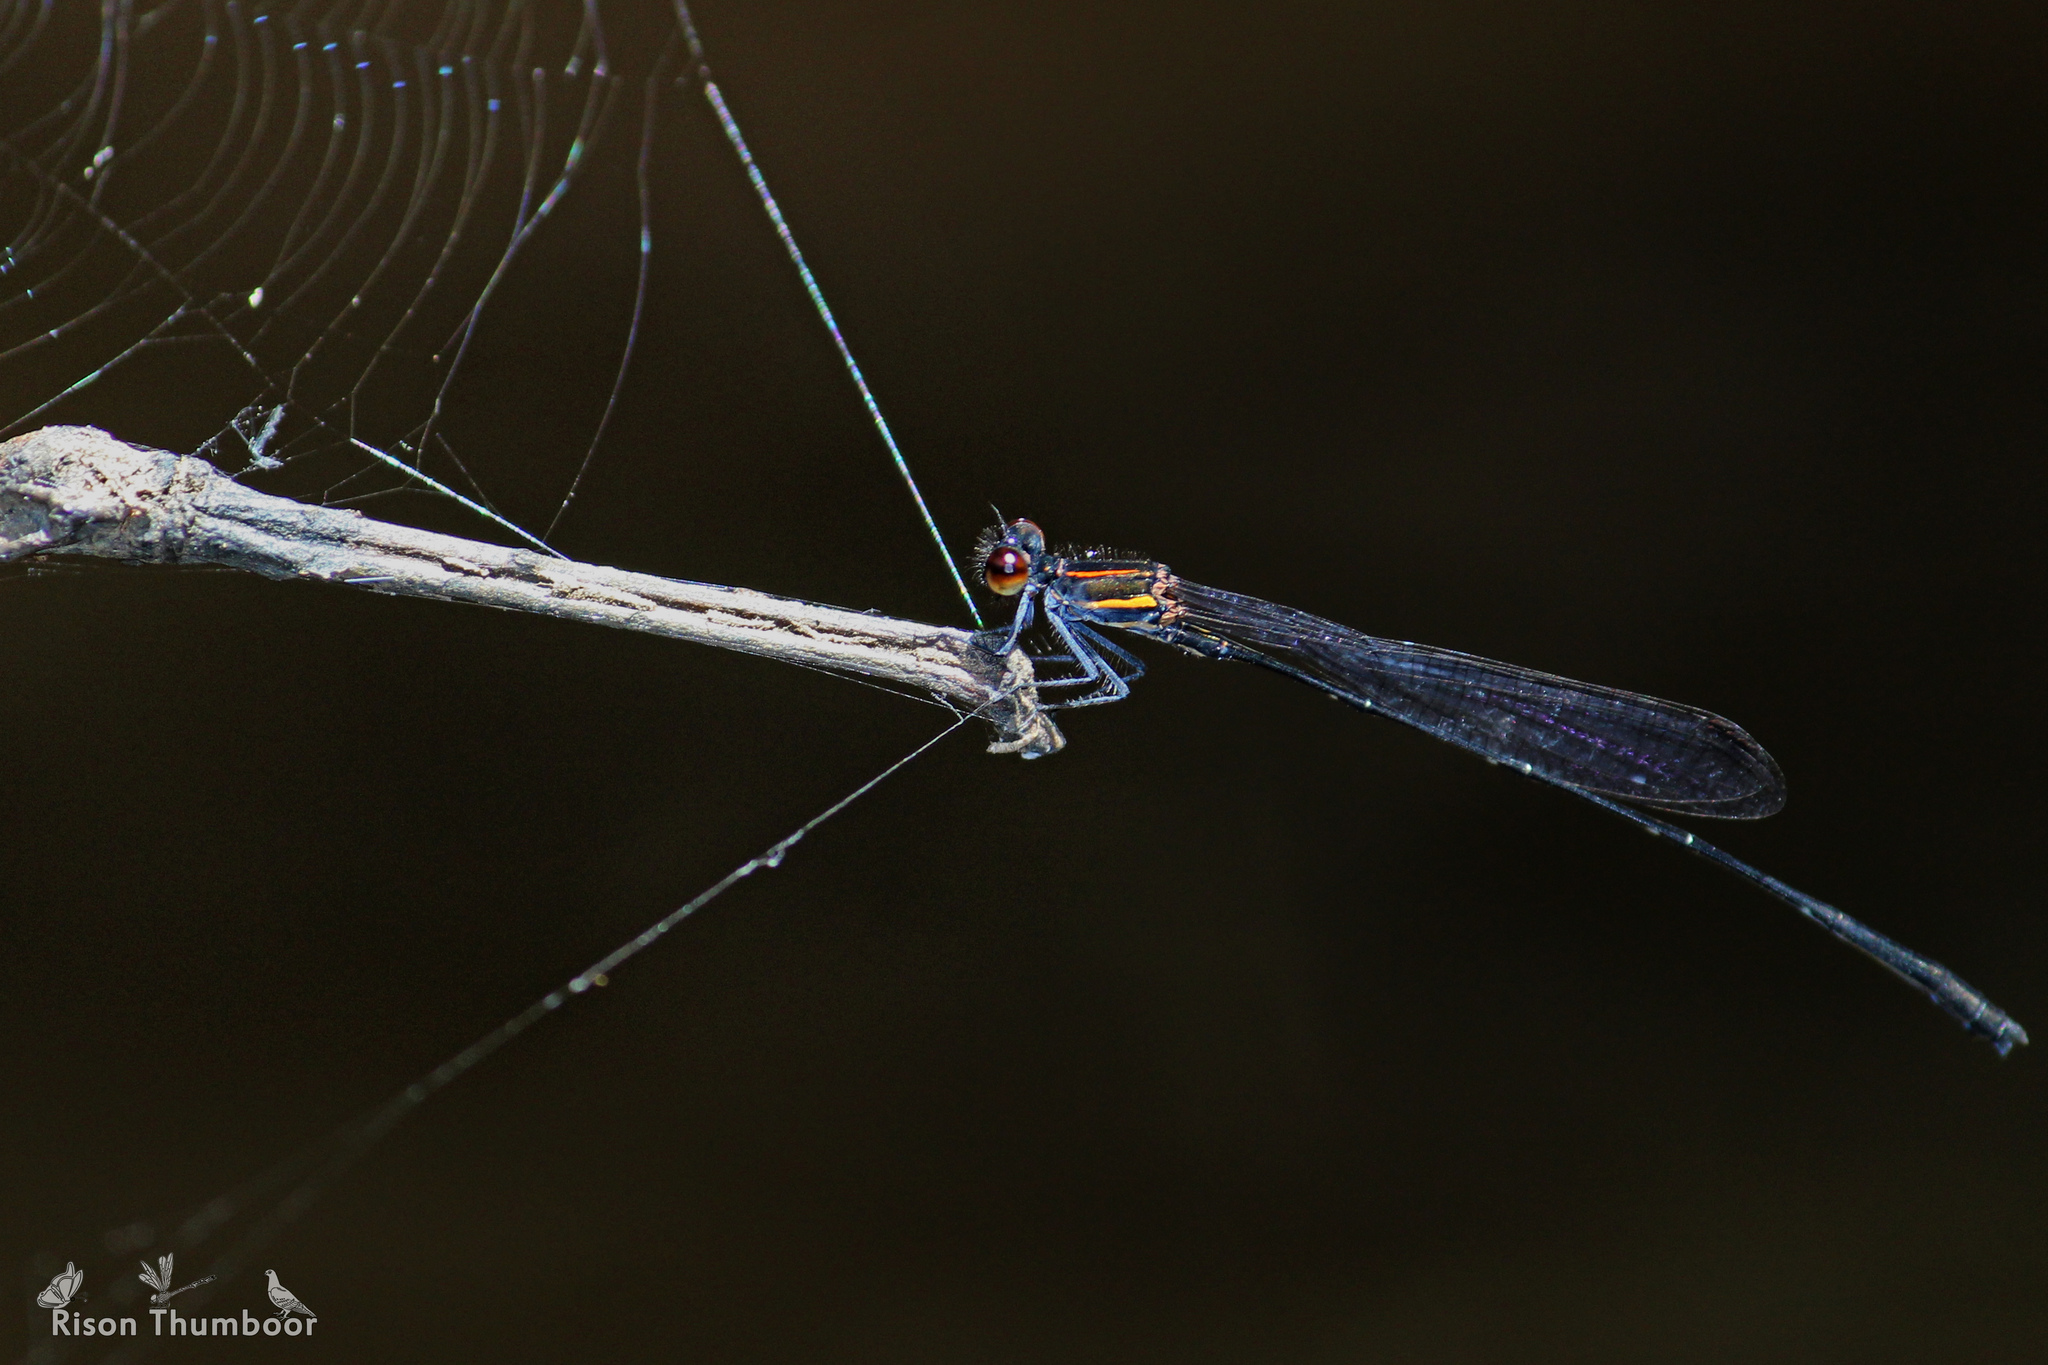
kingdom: Animalia
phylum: Arthropoda
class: Insecta
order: Odonata
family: Platycnemididae
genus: Prodasineura
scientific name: Prodasineura verticalis
